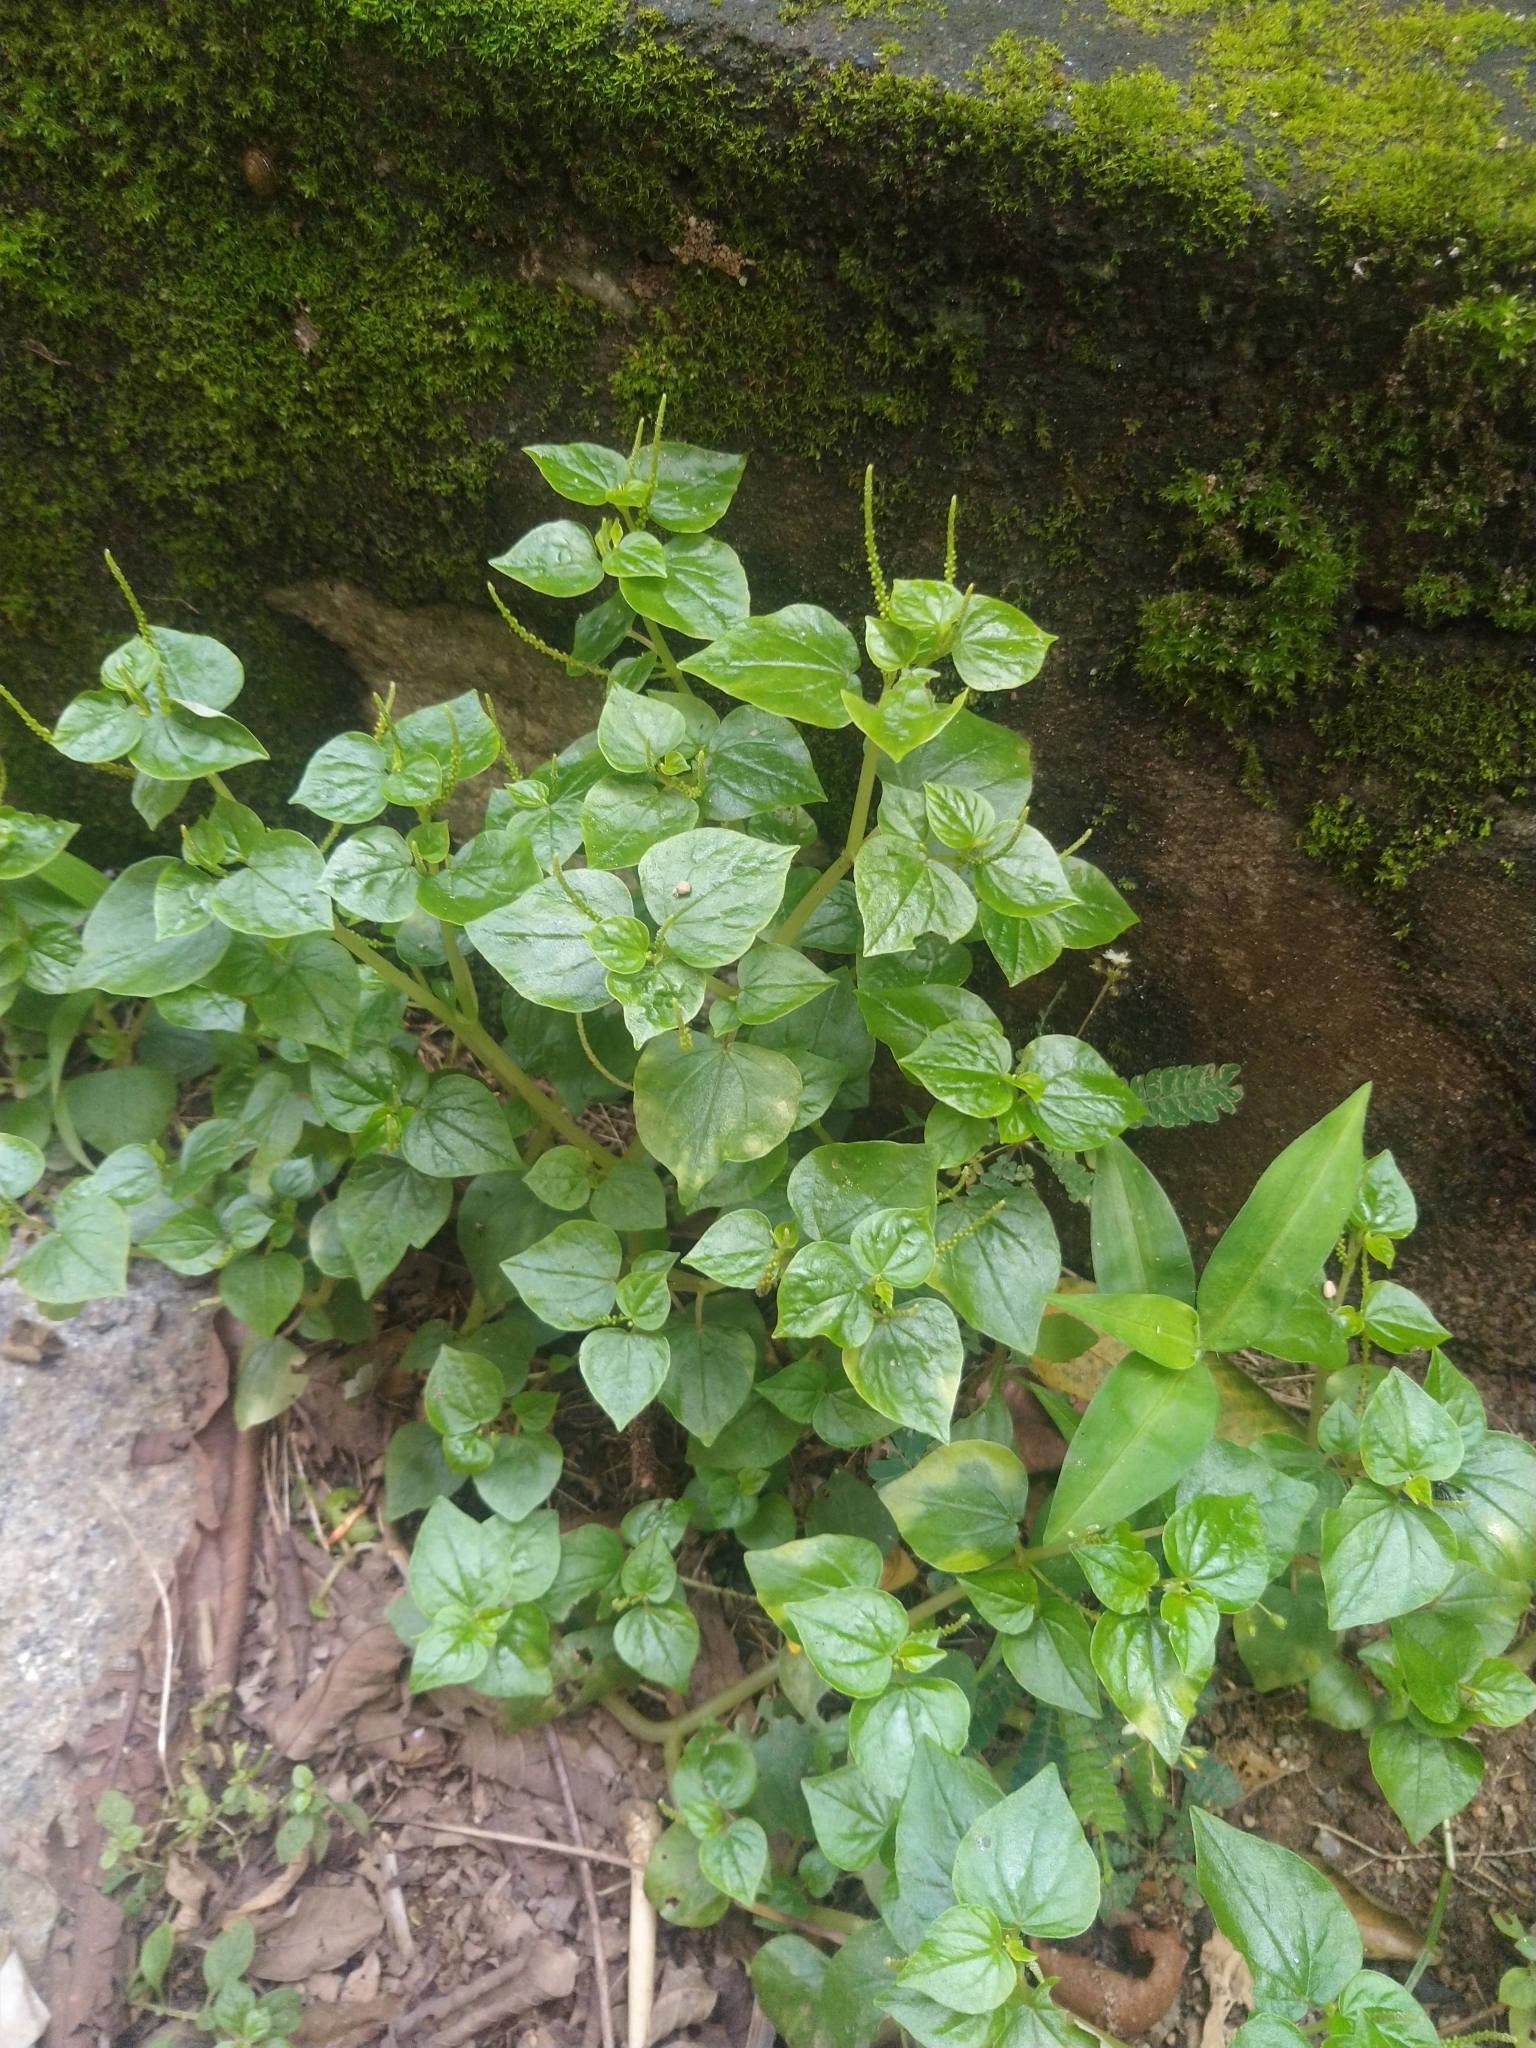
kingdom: Plantae
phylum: Tracheophyta
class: Magnoliopsida
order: Piperales
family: Piperaceae
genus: Peperomia
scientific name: Peperomia pellucida
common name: Man to man
